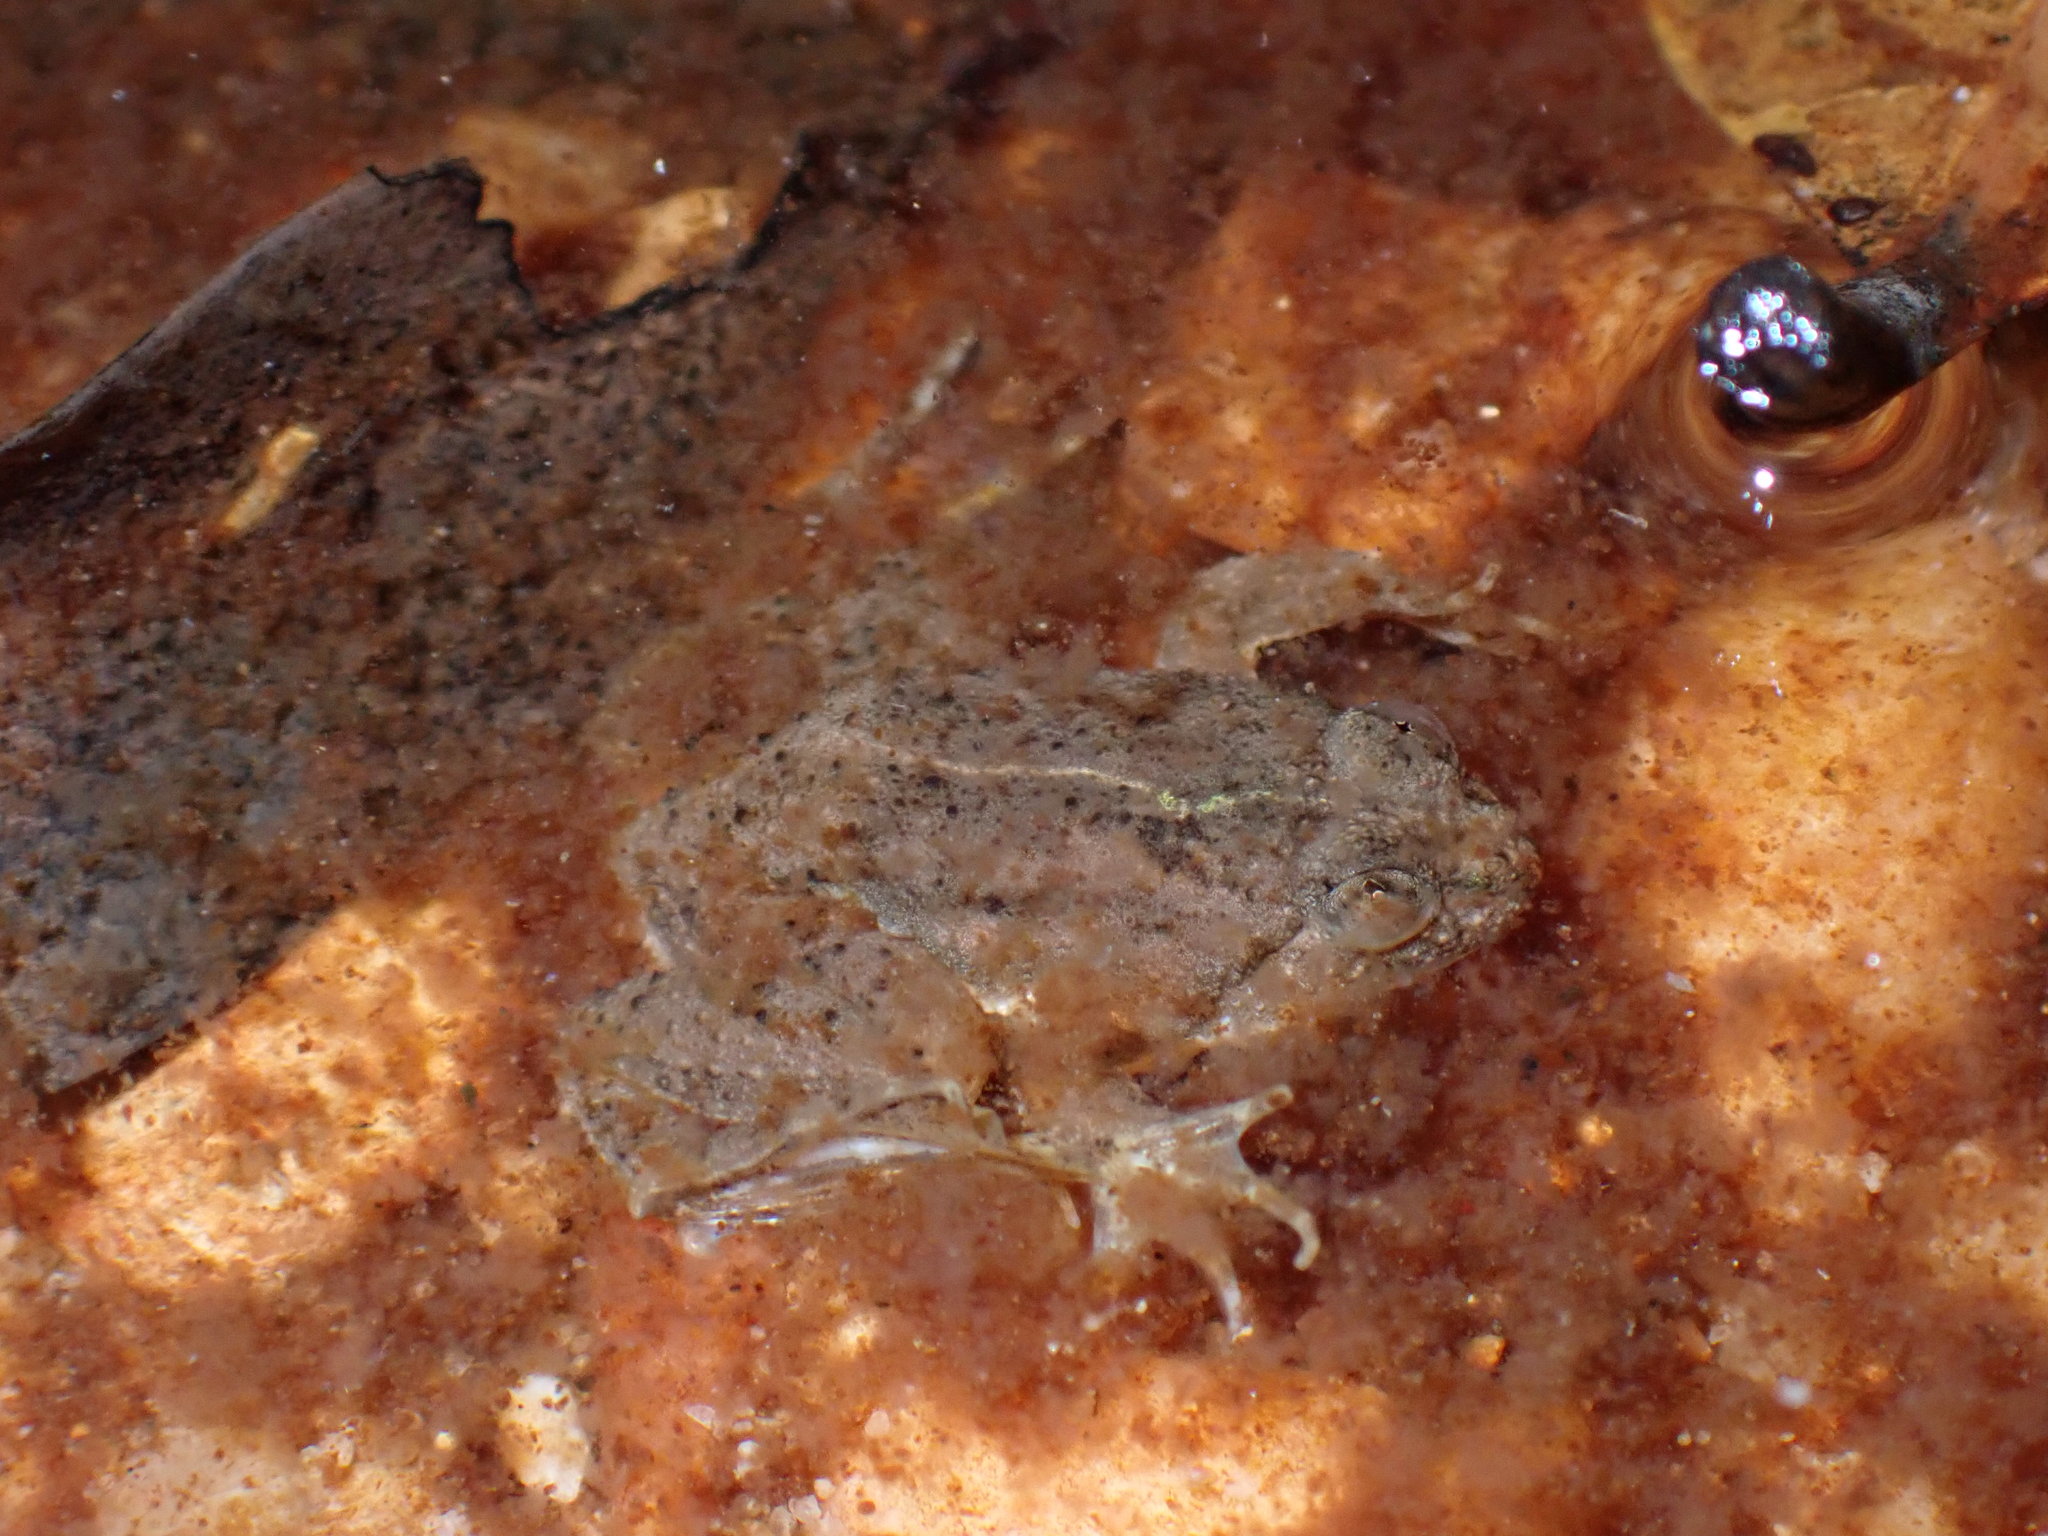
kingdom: Animalia
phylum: Chordata
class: Amphibia
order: Anura
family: Dicroglossidae
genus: Occidozyga
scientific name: Occidozyga lima
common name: Rough-skinned puddle frog/yellow-bellied puddle frog/green puddle frog/pointed-tongued floating frog
